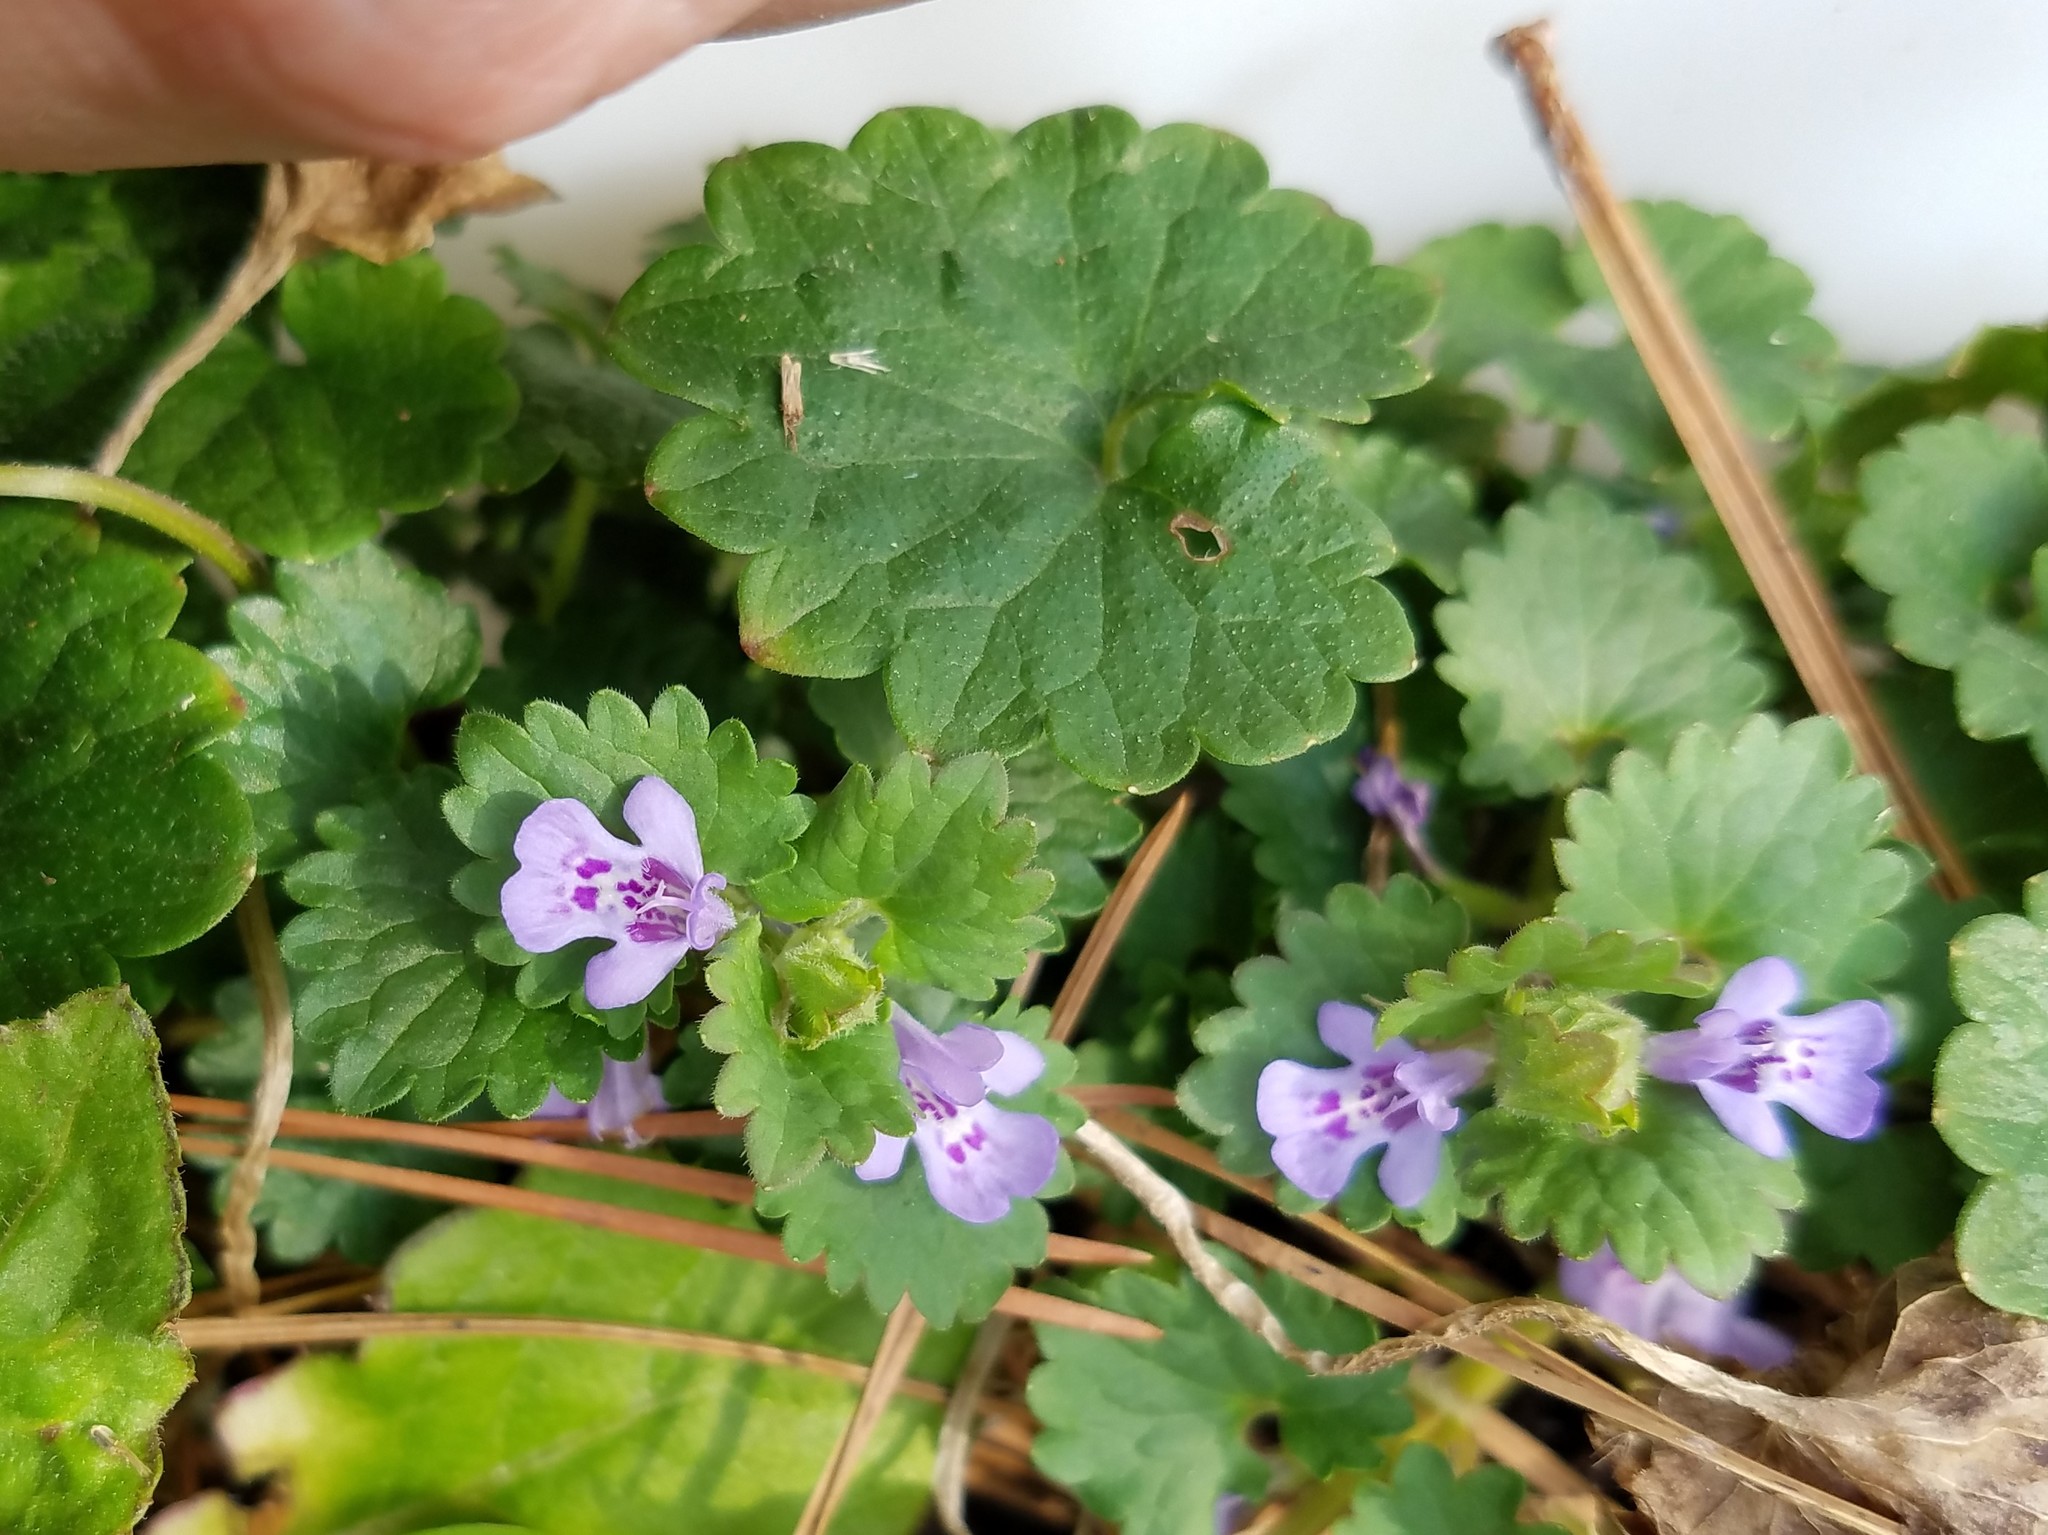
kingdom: Plantae
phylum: Tracheophyta
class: Magnoliopsida
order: Lamiales
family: Lamiaceae
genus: Glechoma
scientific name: Glechoma hederacea
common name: Ground ivy
